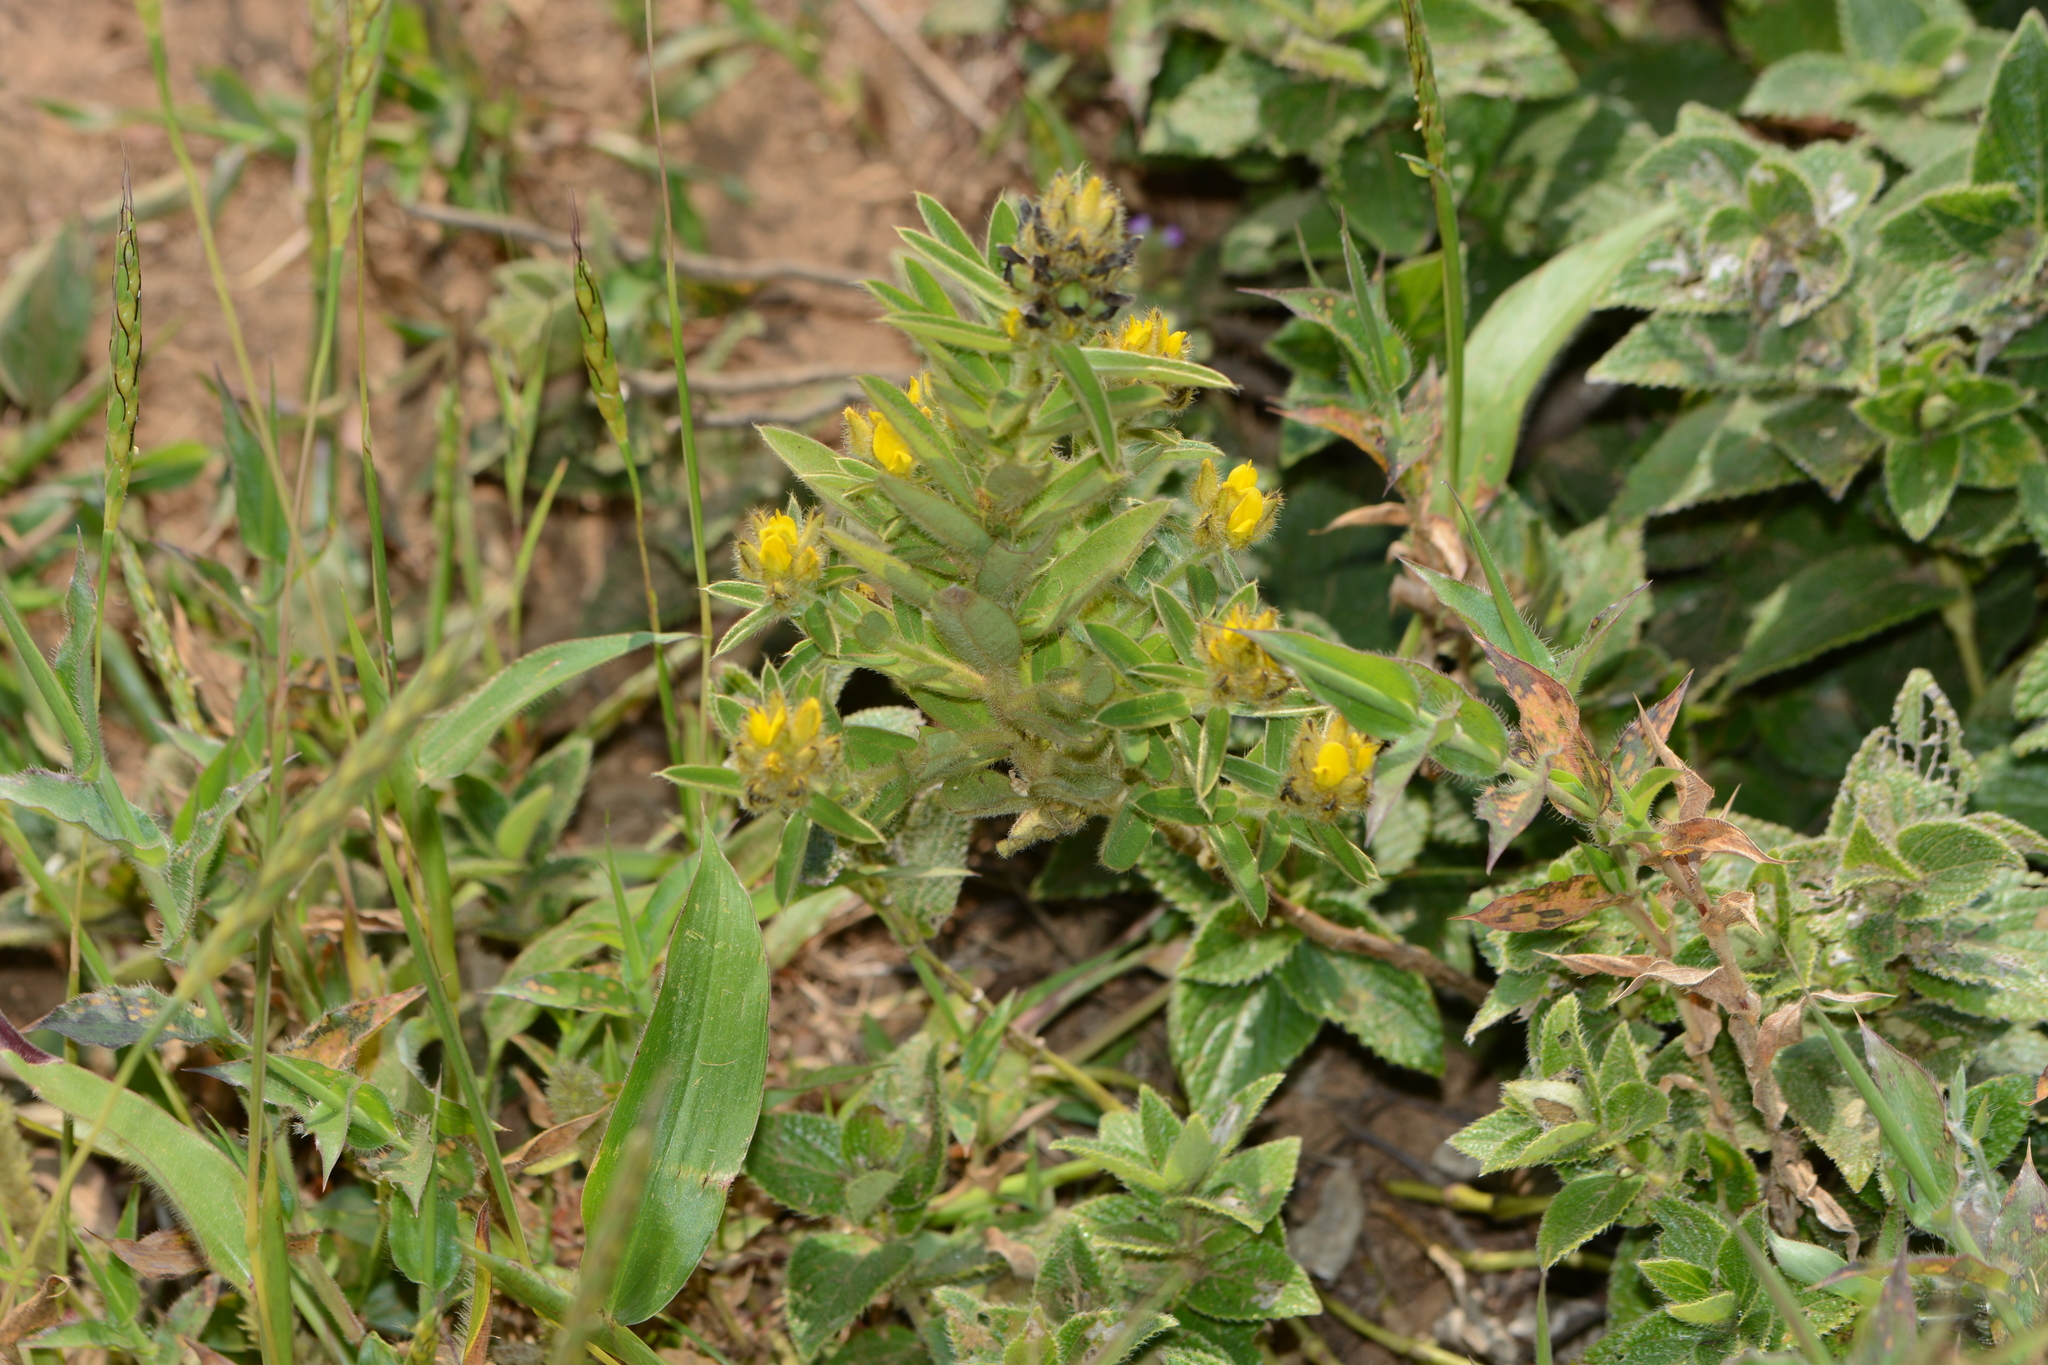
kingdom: Plantae
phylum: Tracheophyta
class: Magnoliopsida
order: Fabales
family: Fabaceae
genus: Crotalaria
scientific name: Crotalaria nana
